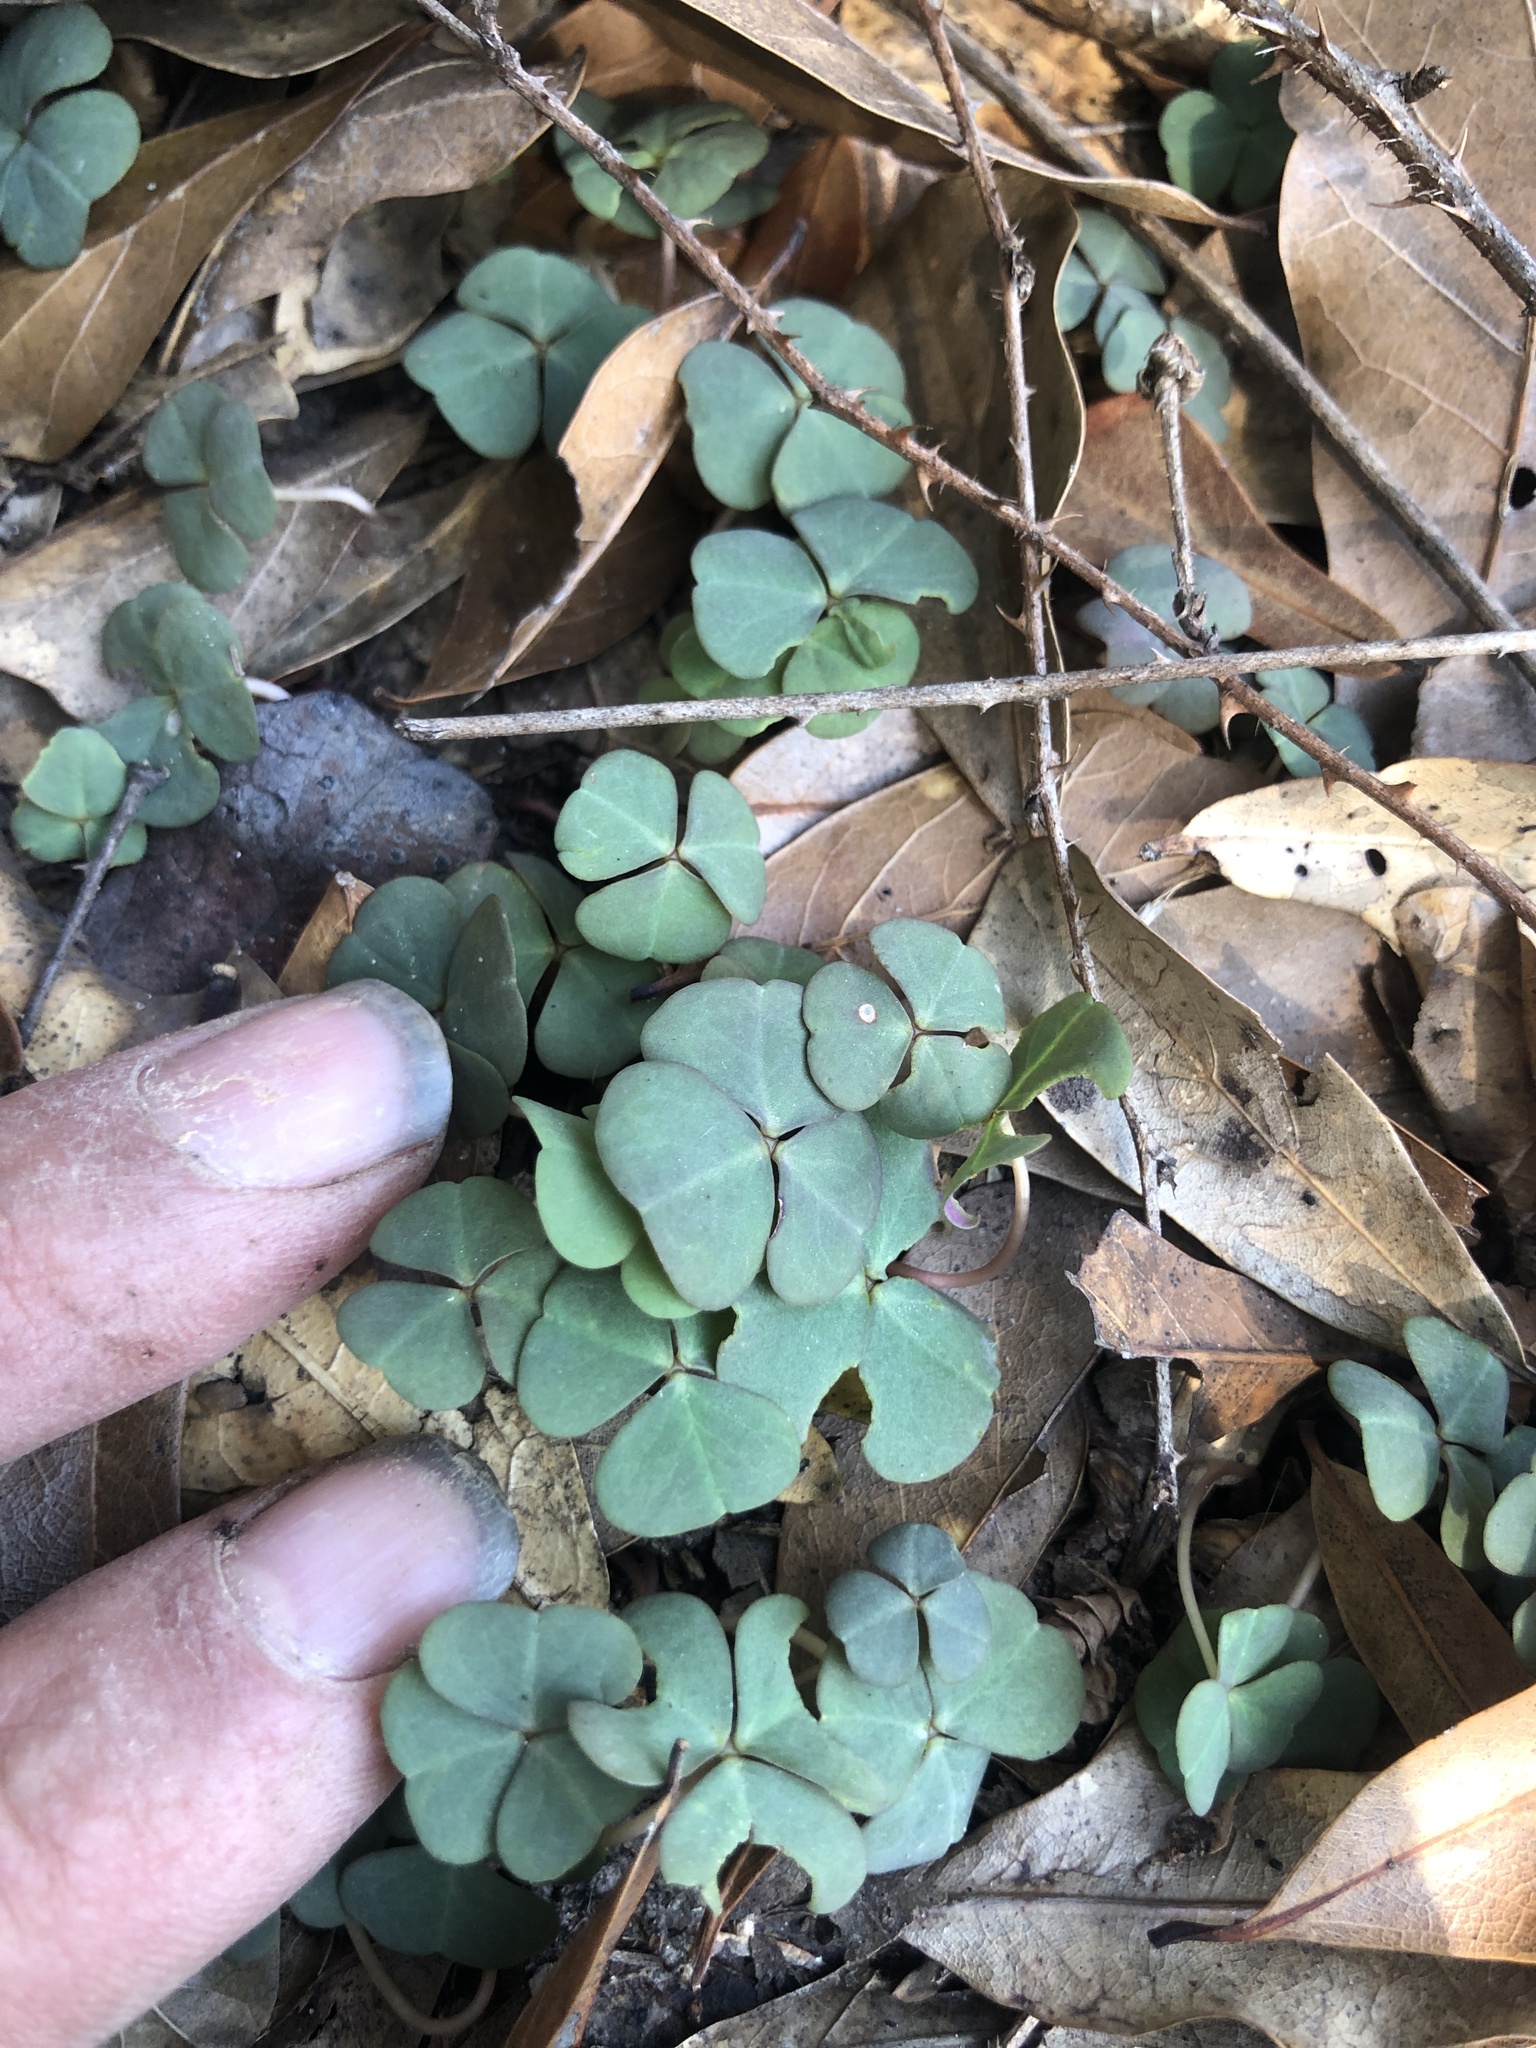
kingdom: Plantae
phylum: Tracheophyta
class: Magnoliopsida
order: Oxalidales
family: Oxalidaceae
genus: Oxalis
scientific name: Oxalis violacea
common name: Violet wood-sorrel
